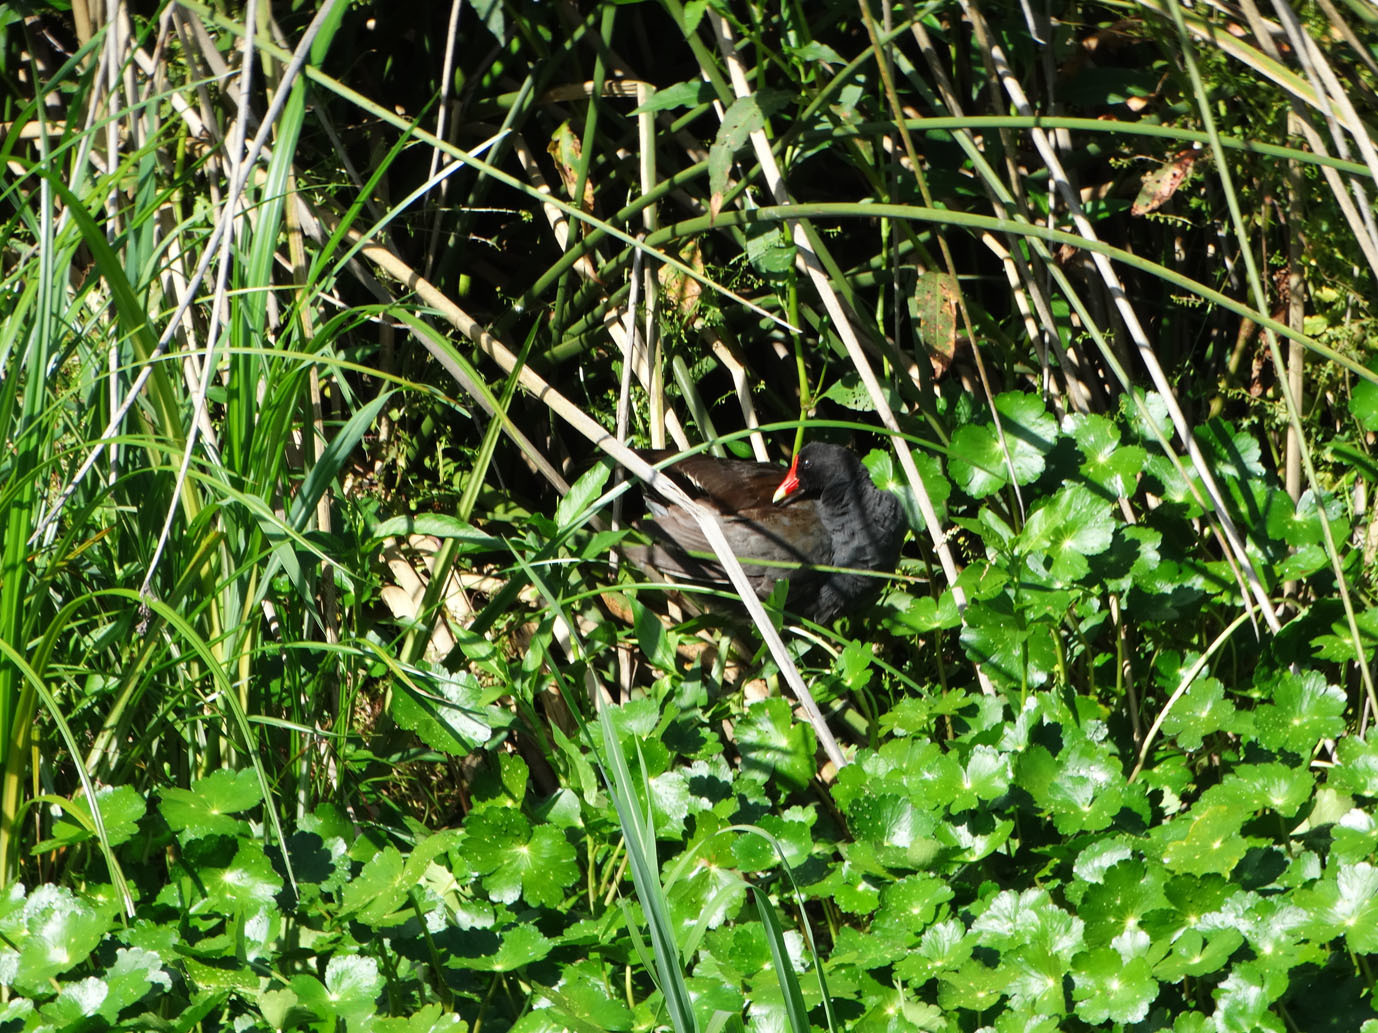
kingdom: Animalia
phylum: Chordata
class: Aves
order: Gruiformes
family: Rallidae
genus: Gallinula
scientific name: Gallinula chloropus
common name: Common moorhen
